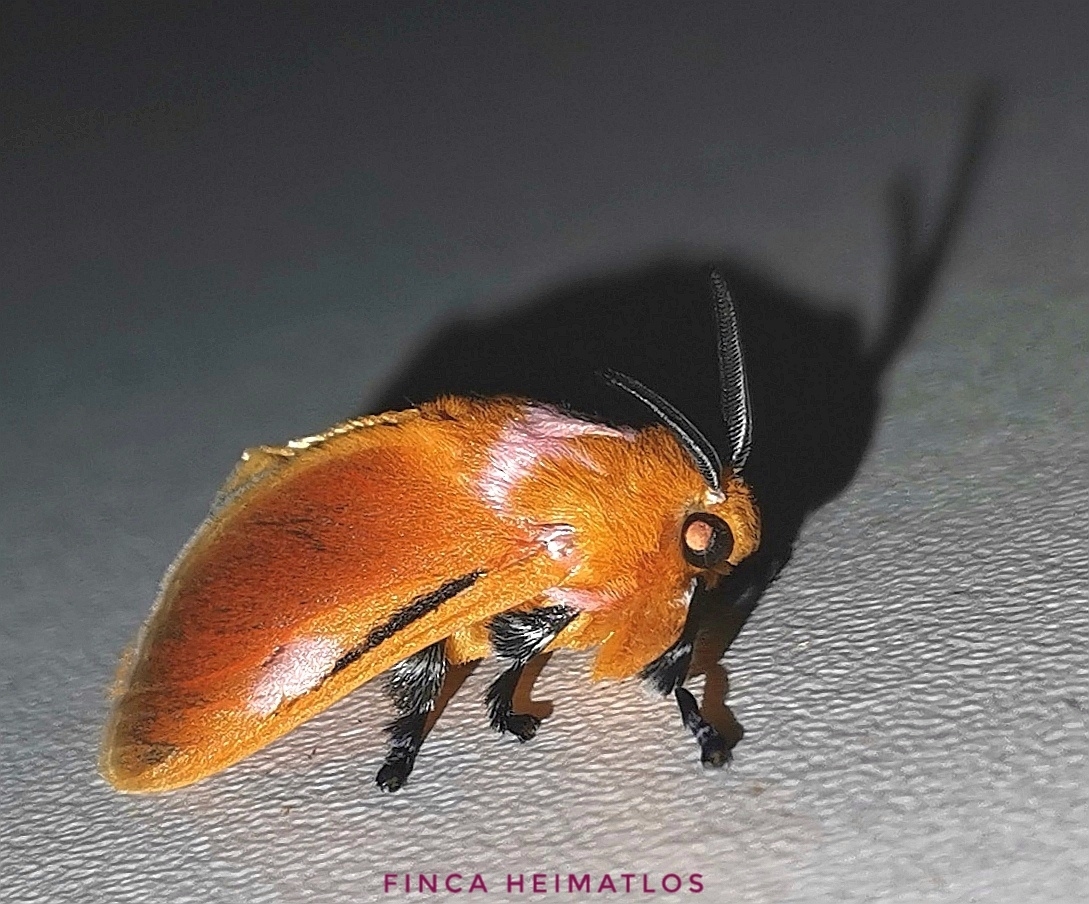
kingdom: Animalia
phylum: Arthropoda
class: Insecta
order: Lepidoptera
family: Megalopygidae
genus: Endobrachys
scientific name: Endobrachys pulchella
